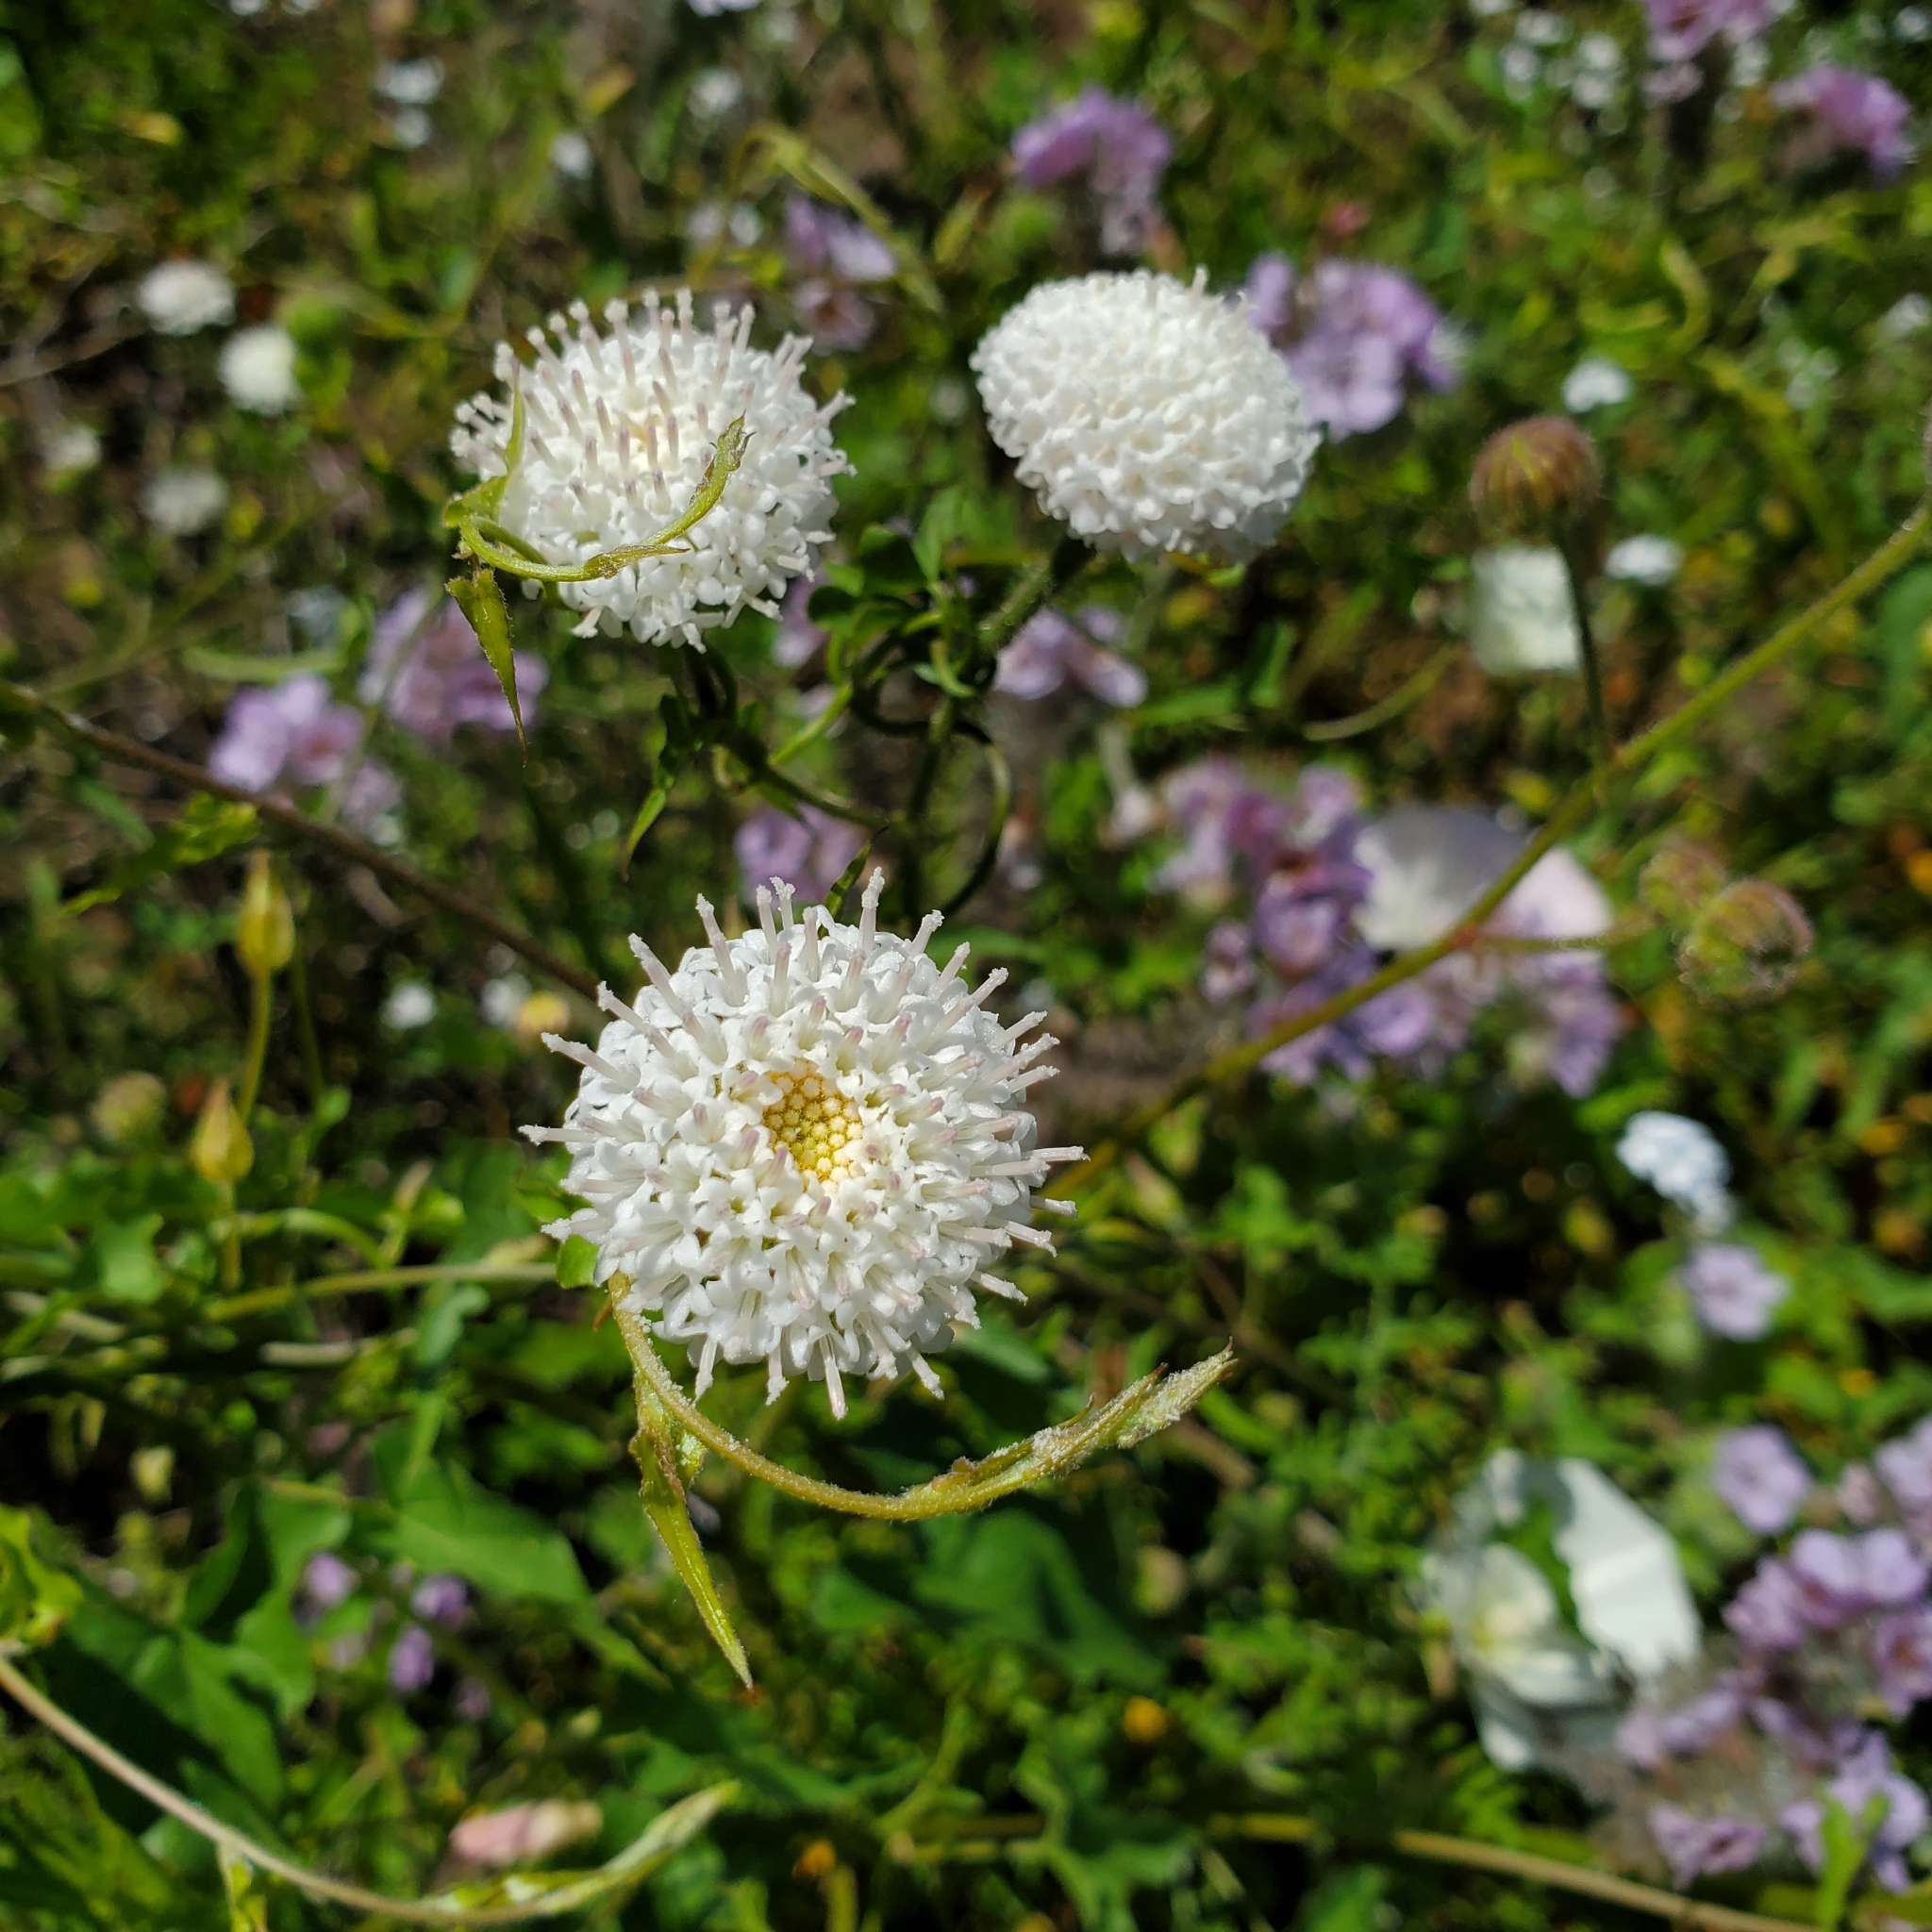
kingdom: Plantae
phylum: Tracheophyta
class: Magnoliopsida
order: Asterales
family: Asteraceae
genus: Chaenactis
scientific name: Chaenactis artemisiifolia
